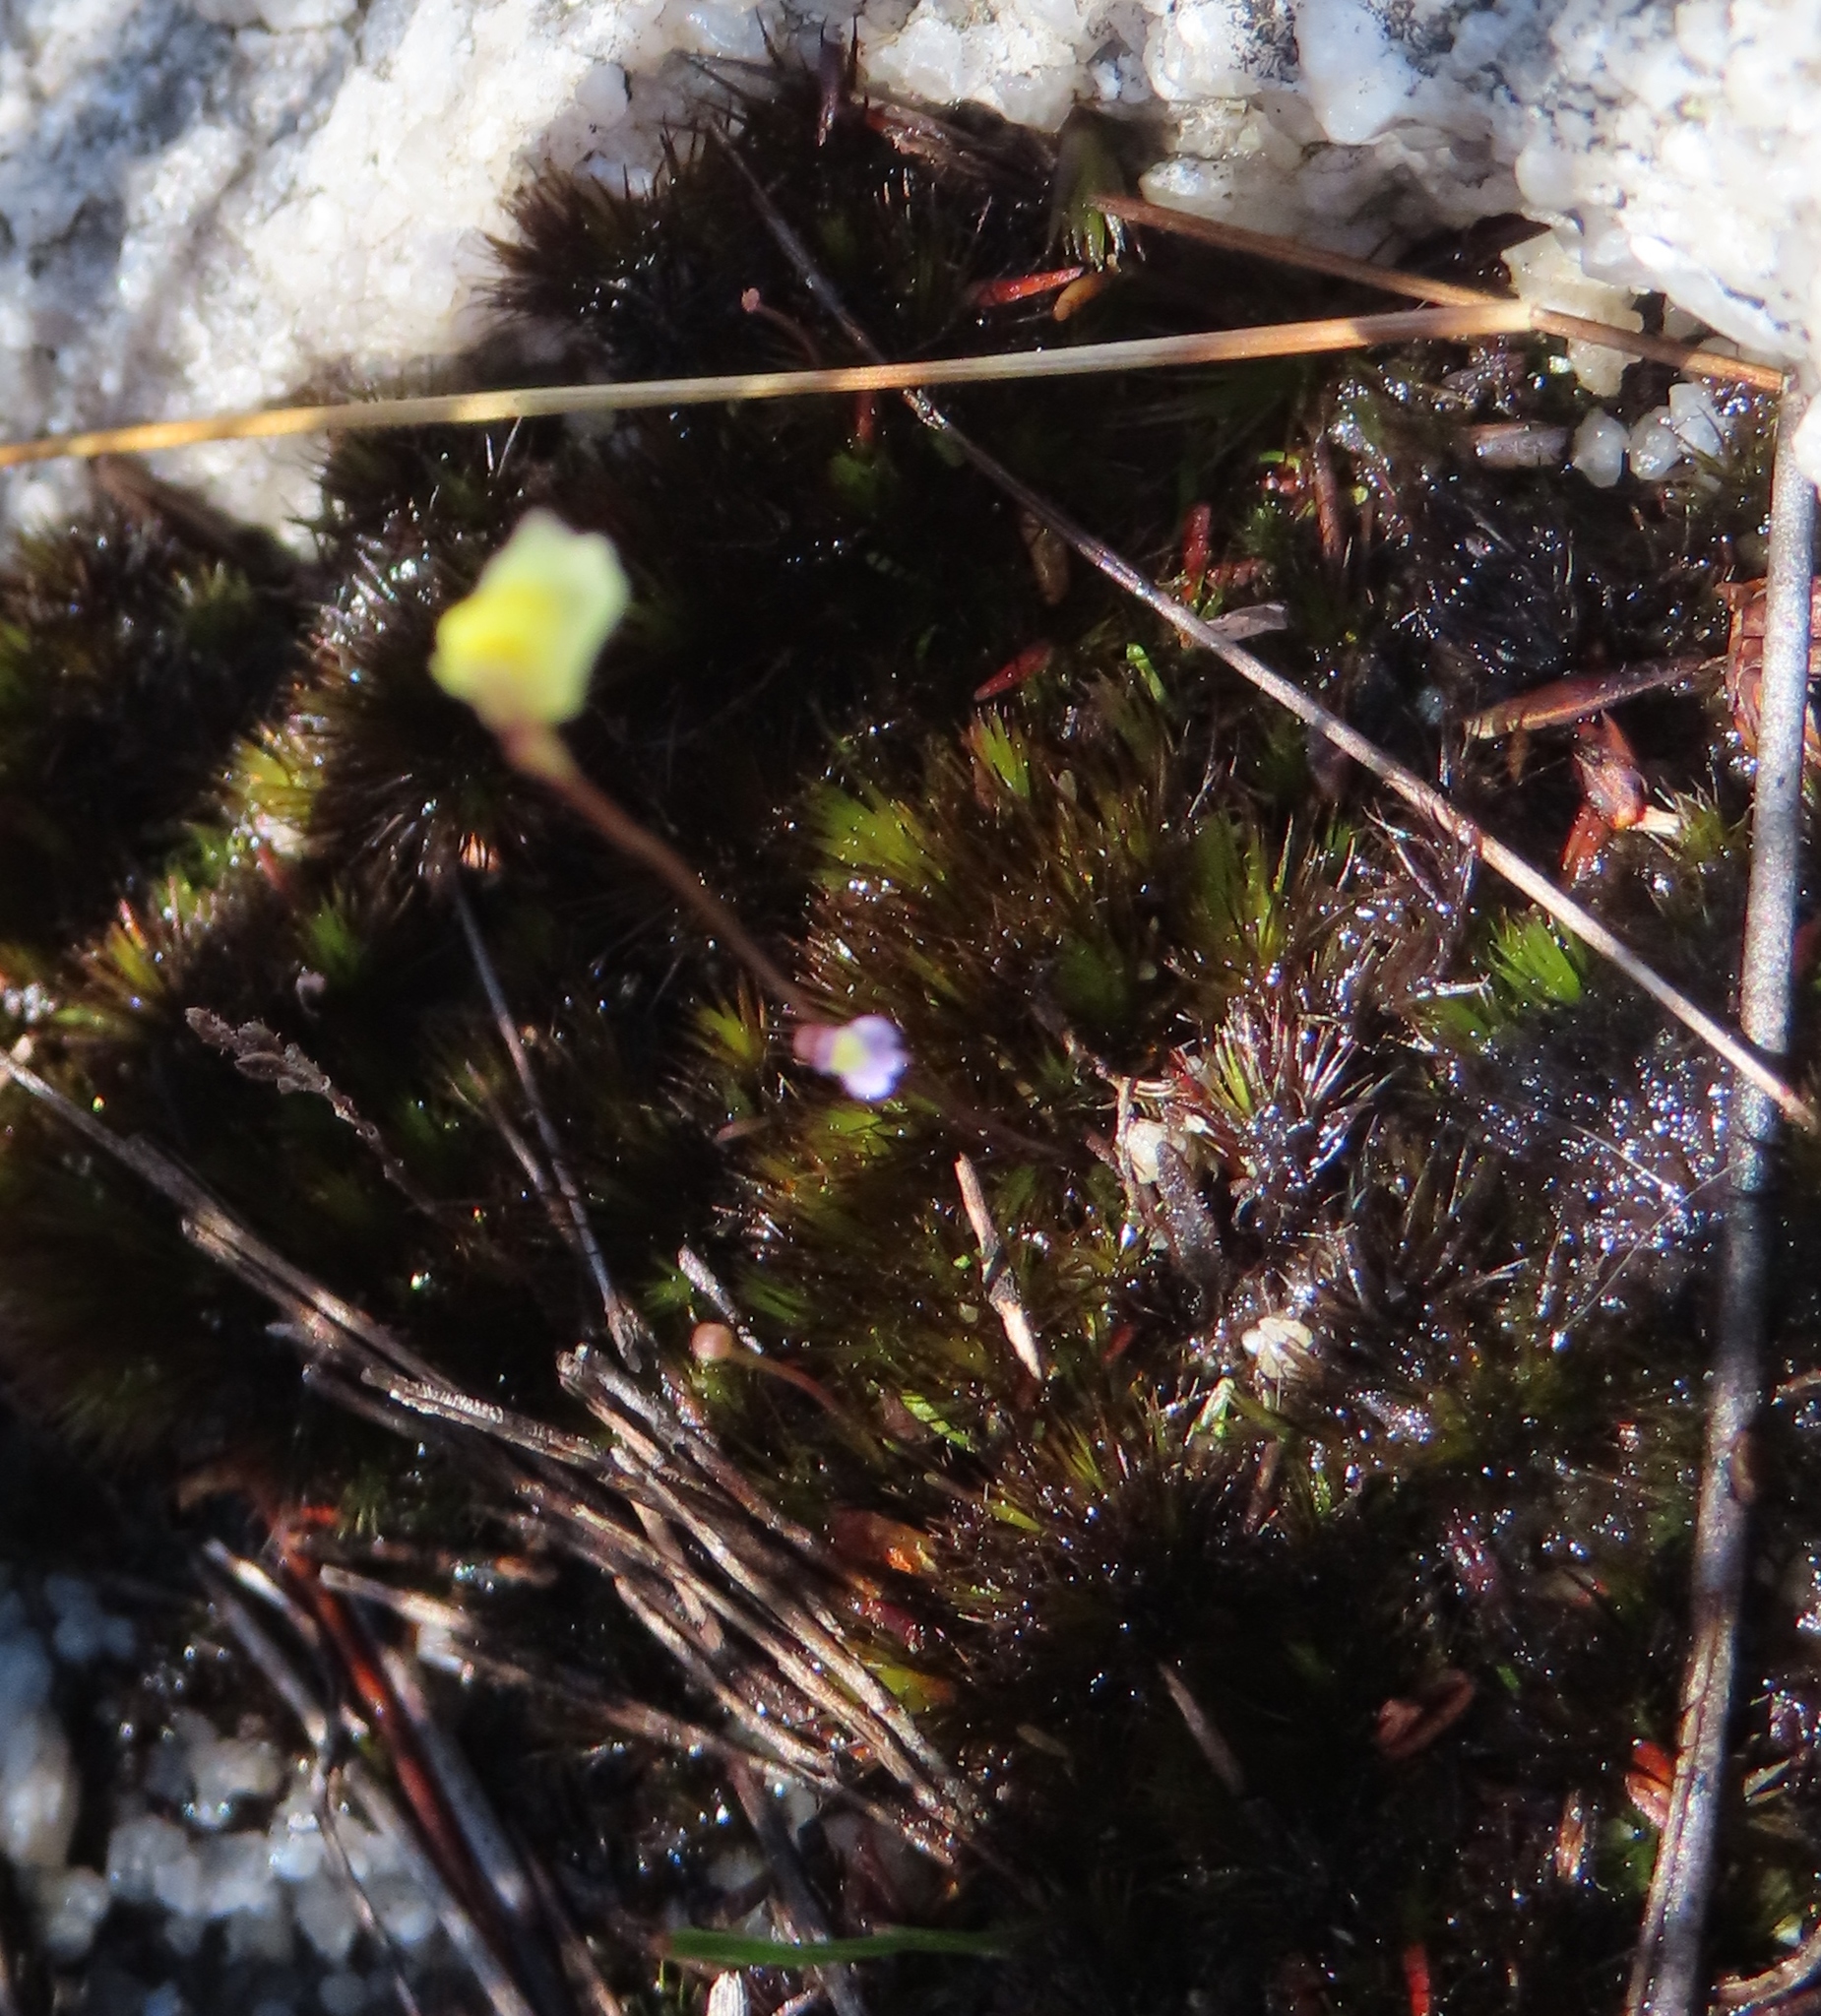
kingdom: Plantae
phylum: Tracheophyta
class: Magnoliopsida
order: Lamiales
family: Lentibulariaceae
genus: Utricularia
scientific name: Utricularia bisquamata
